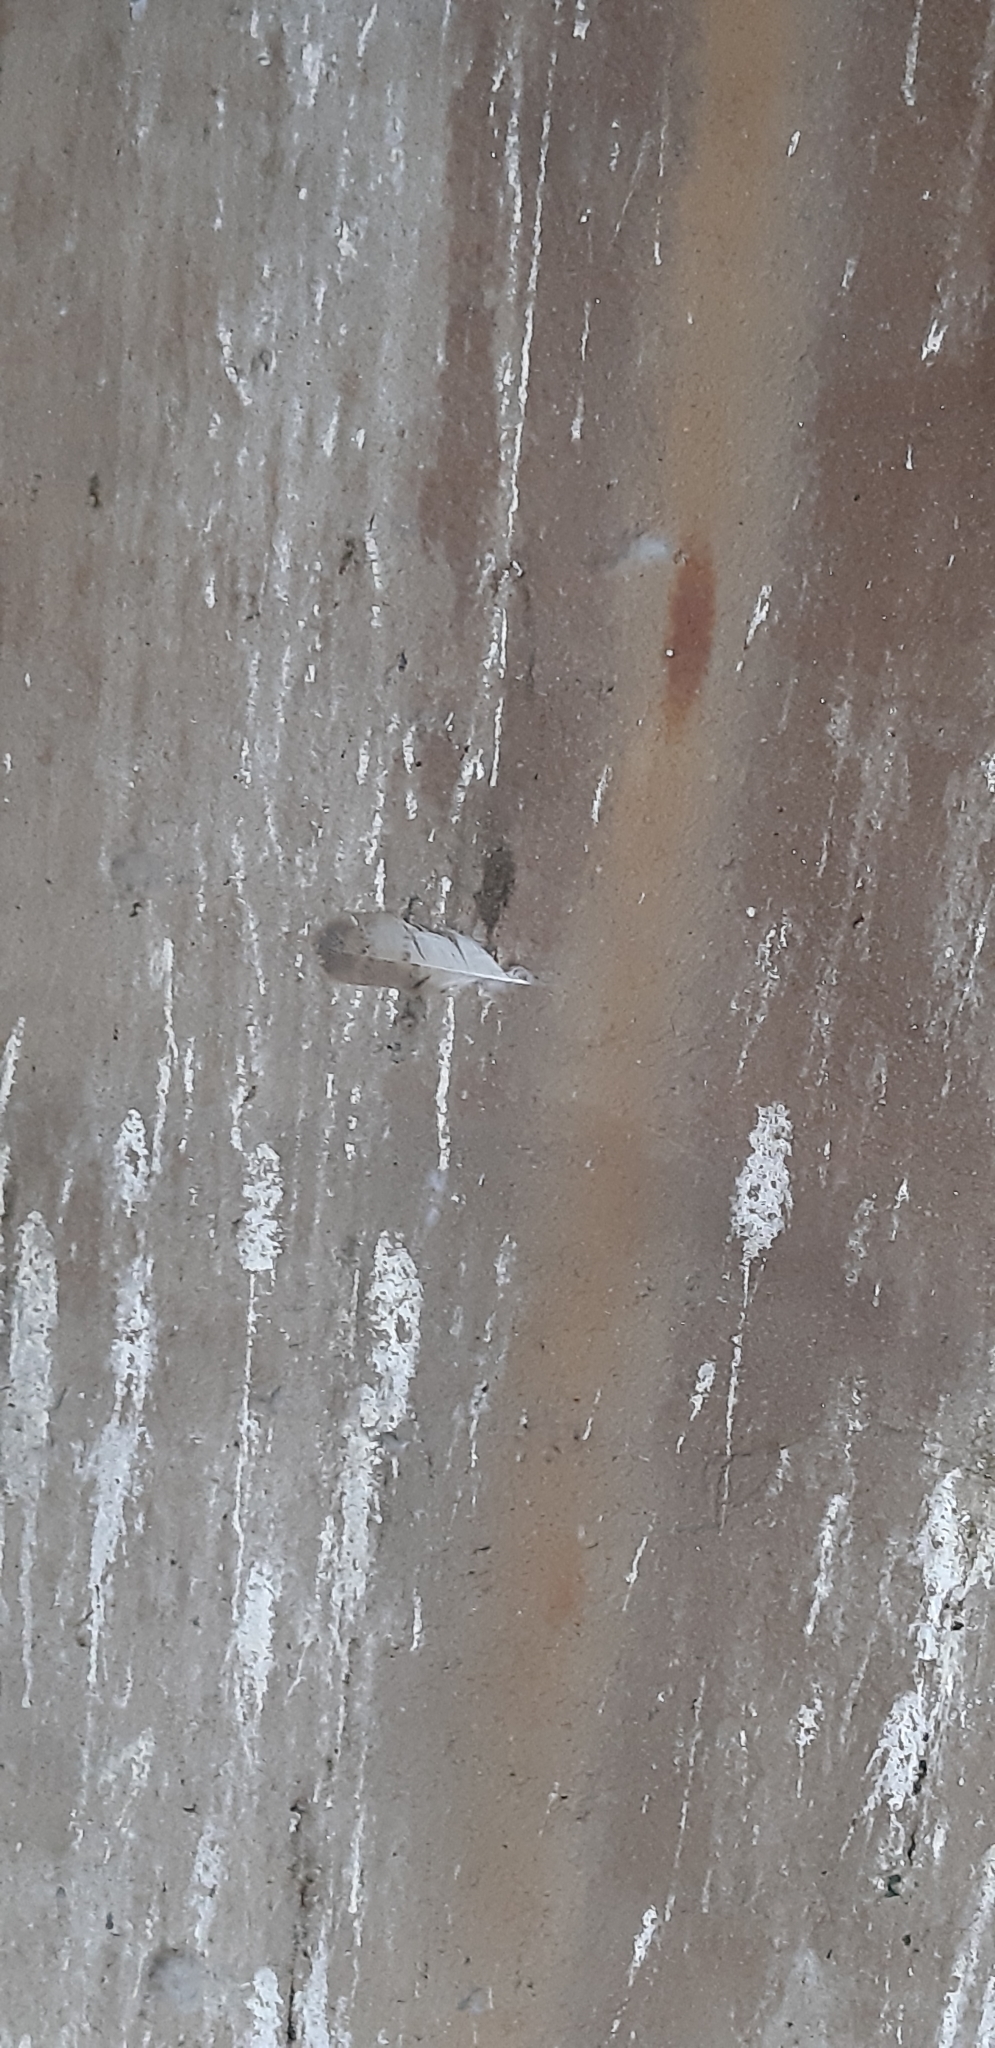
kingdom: Animalia
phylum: Chordata
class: Aves
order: Strigiformes
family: Tytonidae
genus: Tyto
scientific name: Tyto alba
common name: Barn owl
